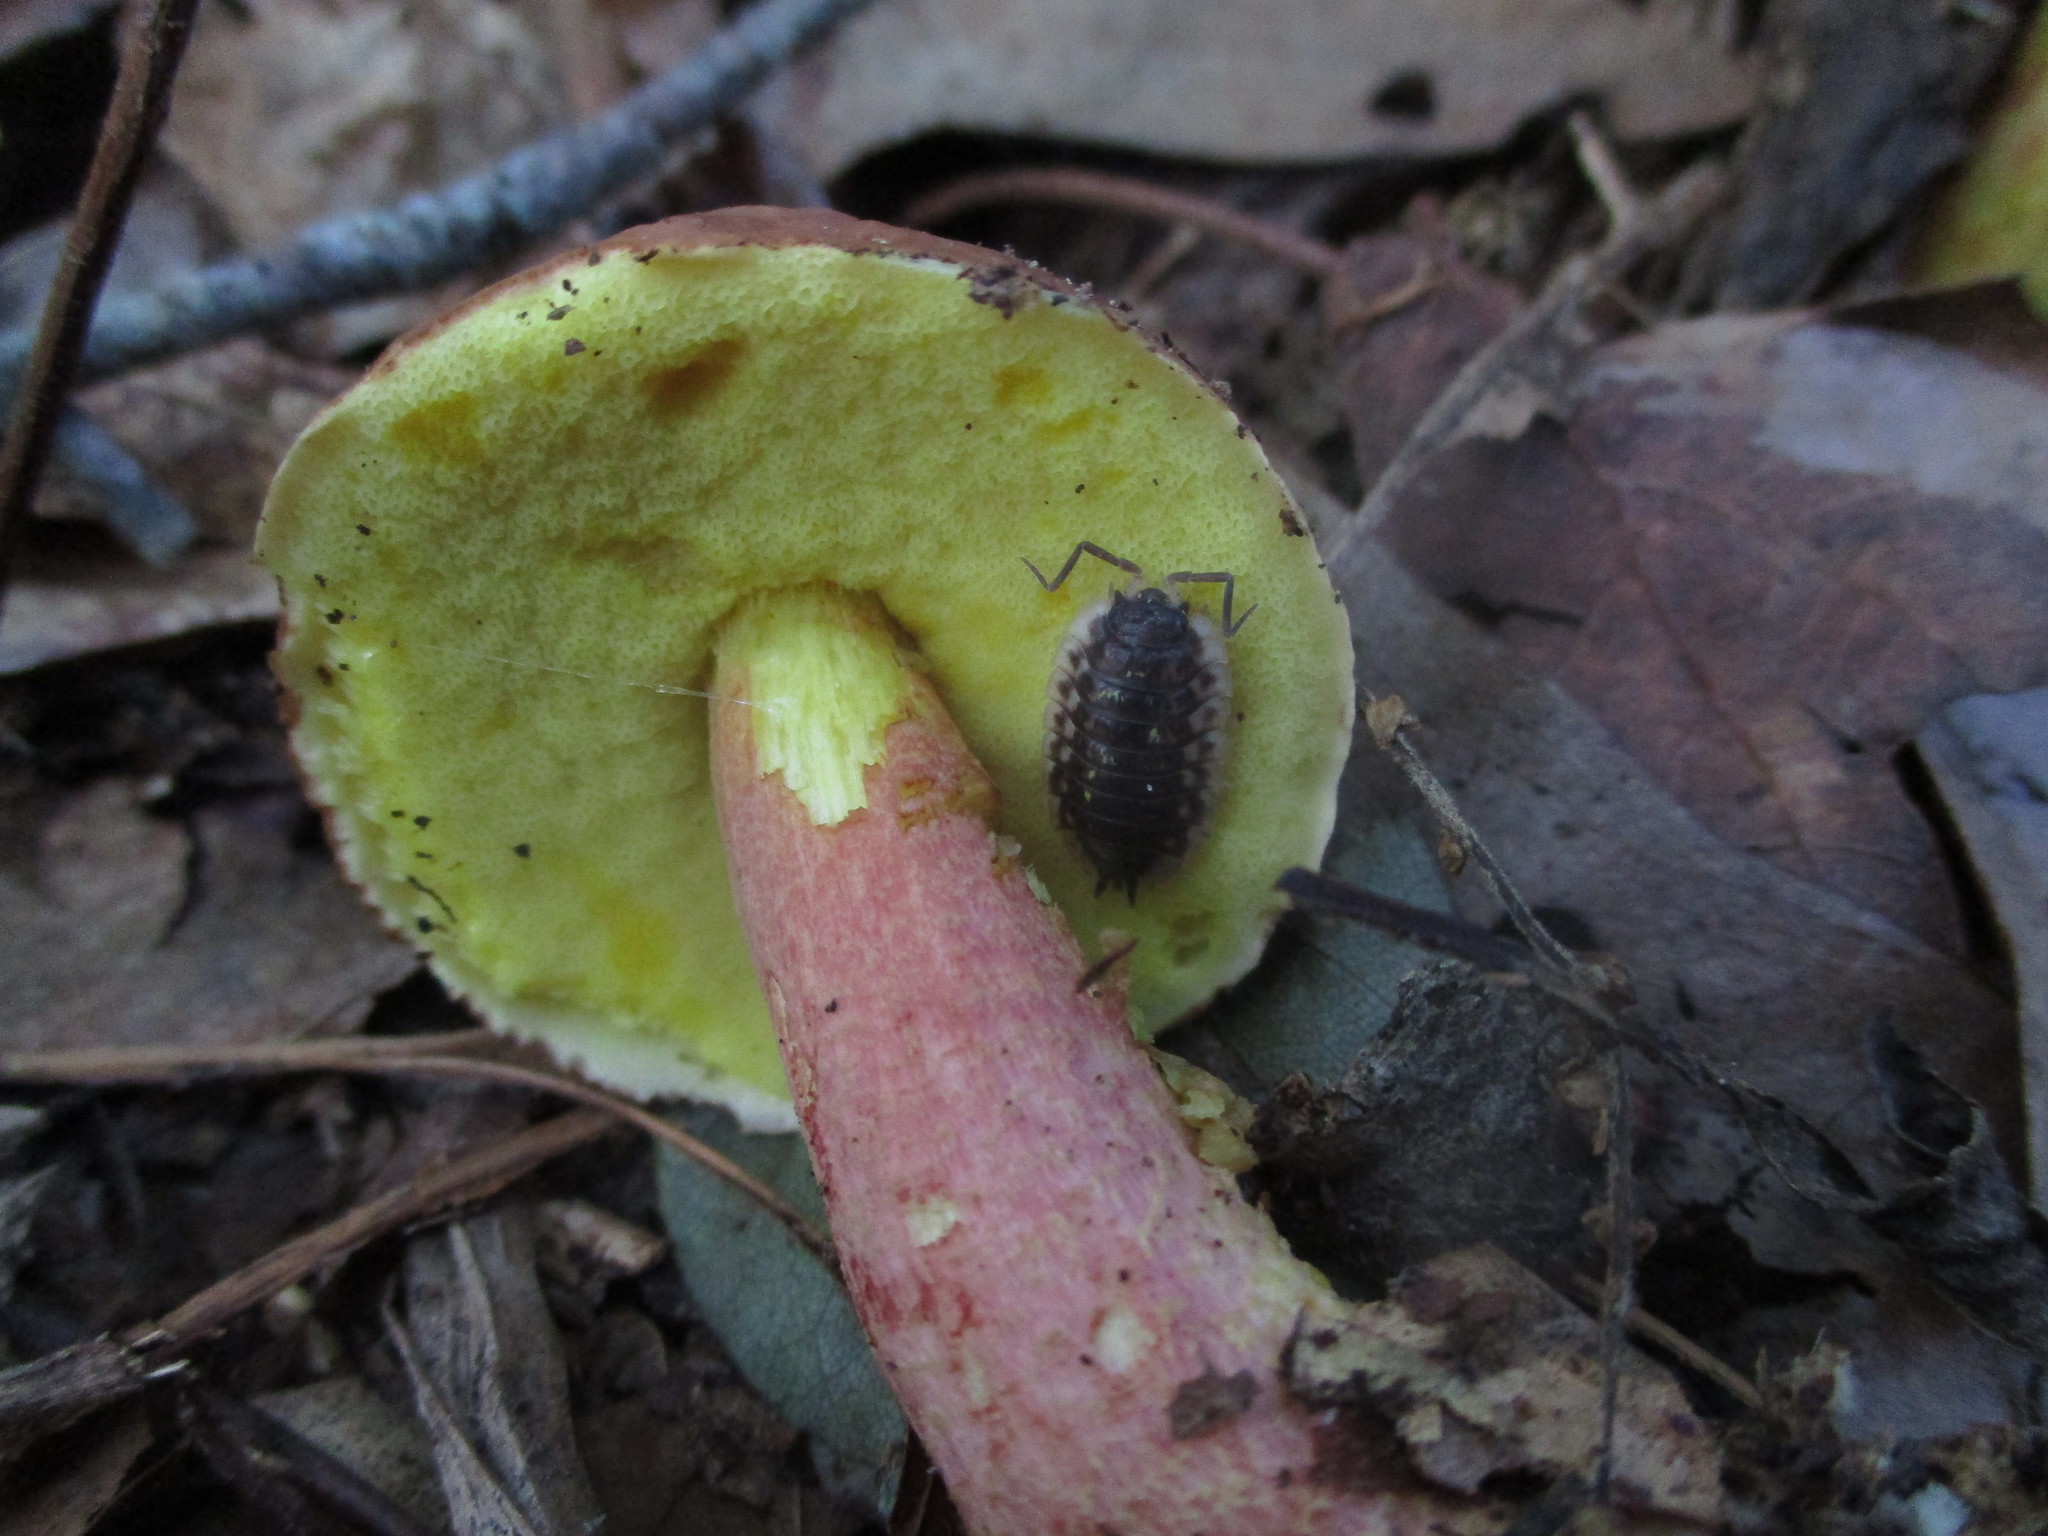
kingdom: Fungi
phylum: Basidiomycota
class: Agaricomycetes
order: Boletales
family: Boletaceae
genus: Hemileccinum
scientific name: Hemileccinum rubropunctum
